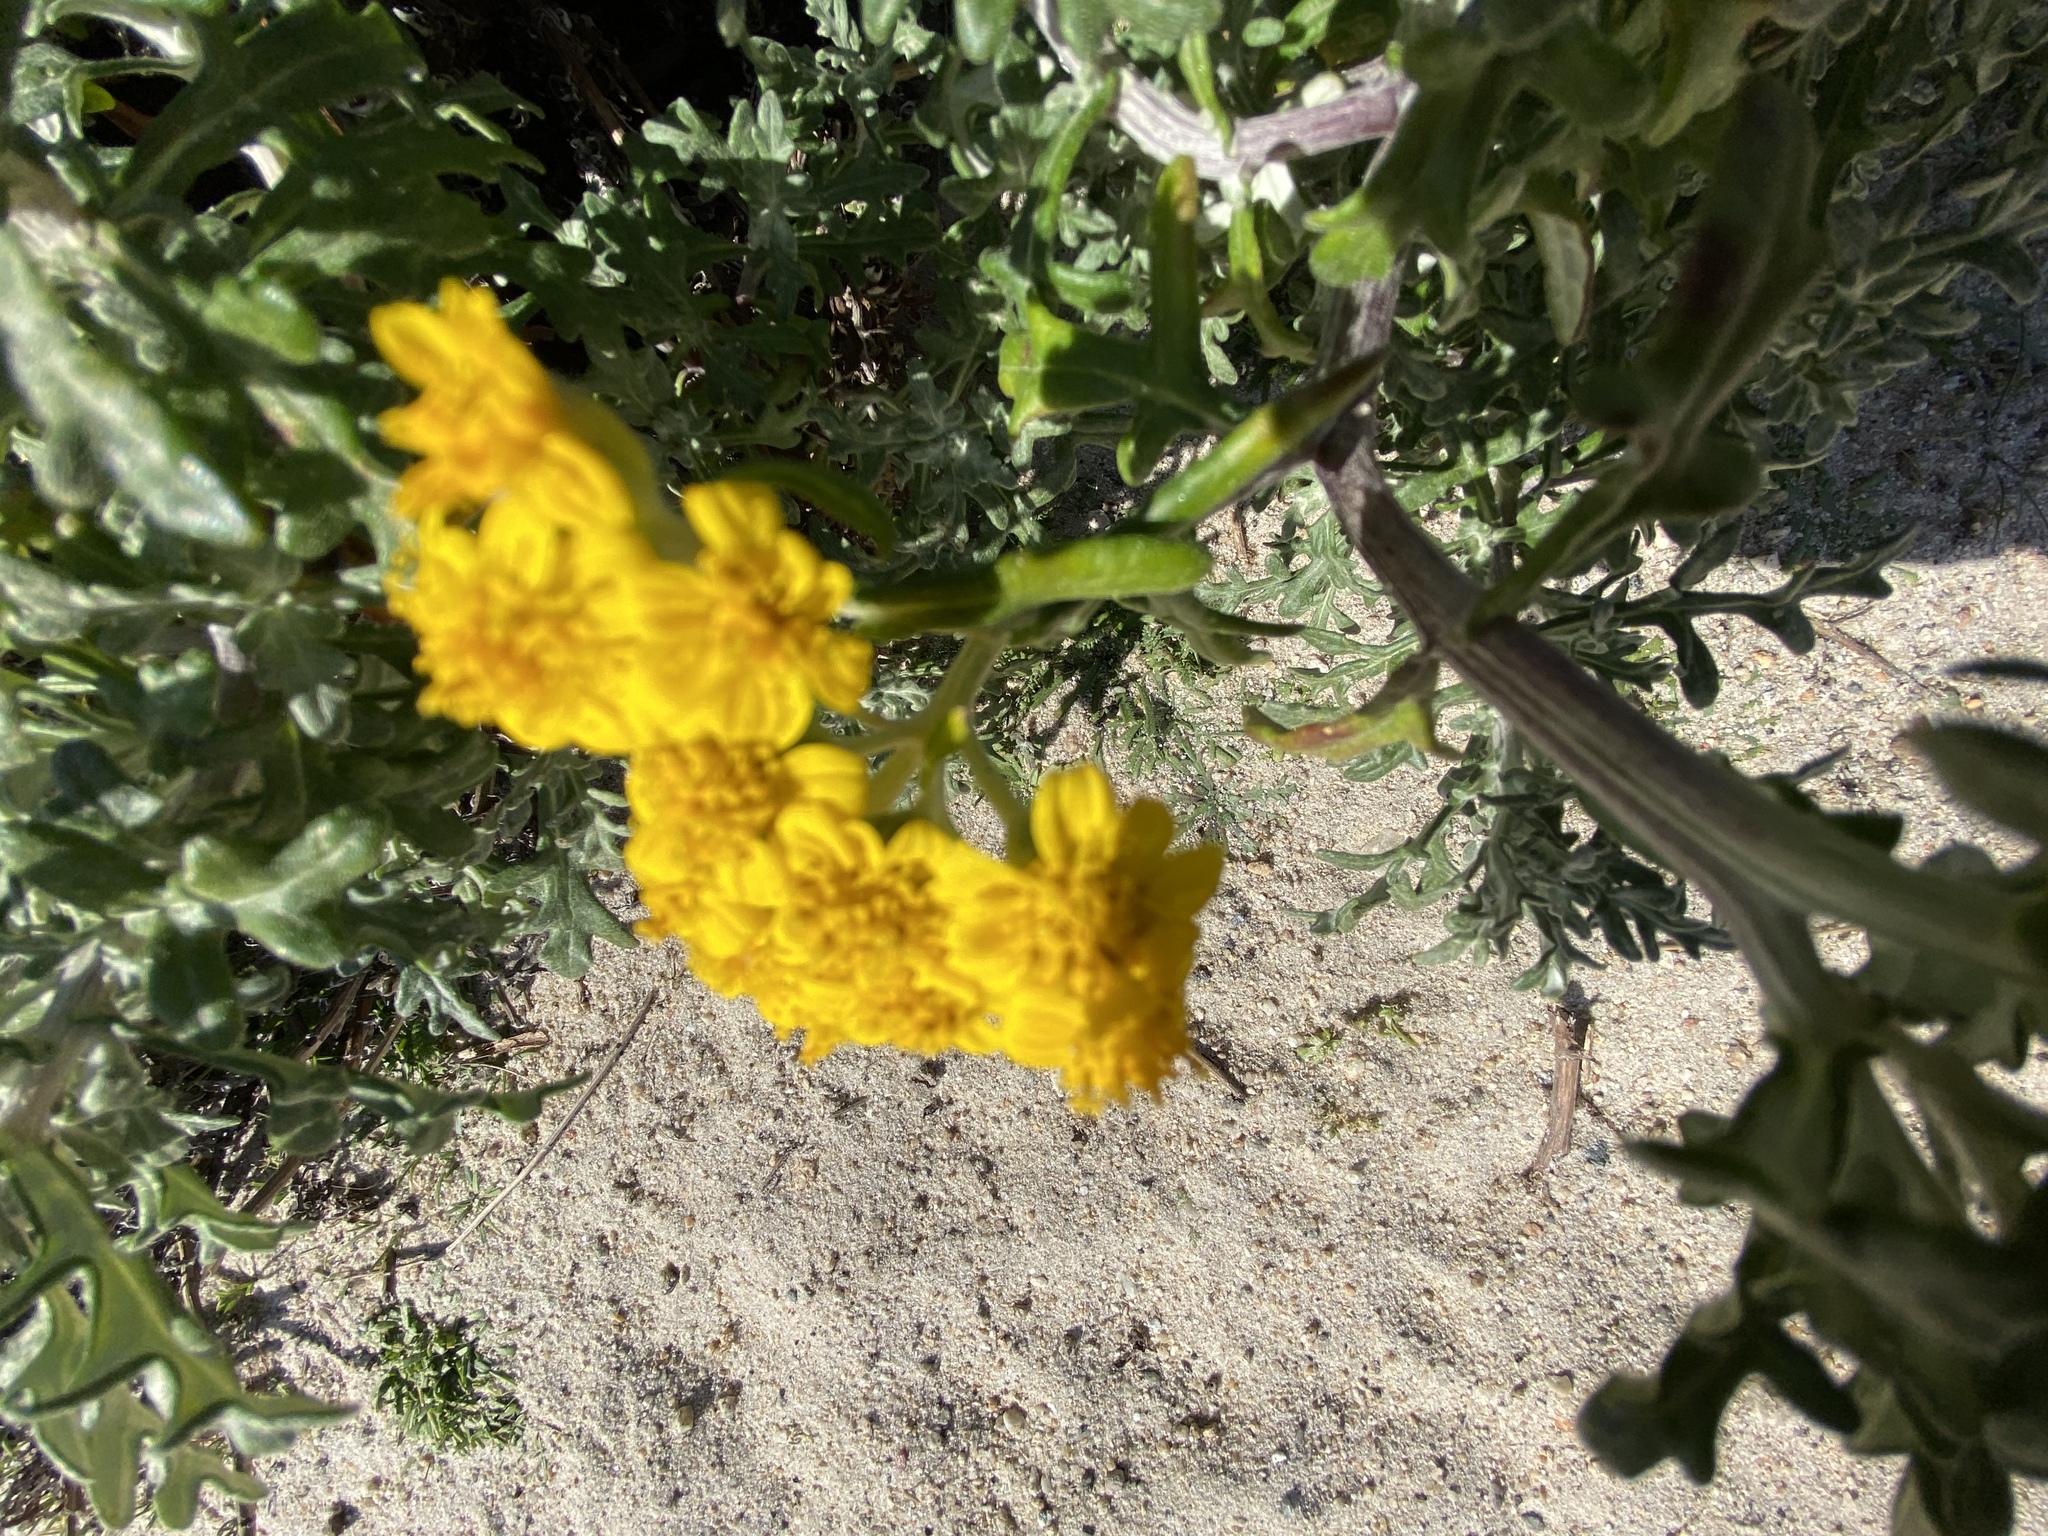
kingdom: Plantae
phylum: Tracheophyta
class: Magnoliopsida
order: Asterales
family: Asteraceae
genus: Eriophyllum
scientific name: Eriophyllum staechadifolium
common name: Lizardtail
